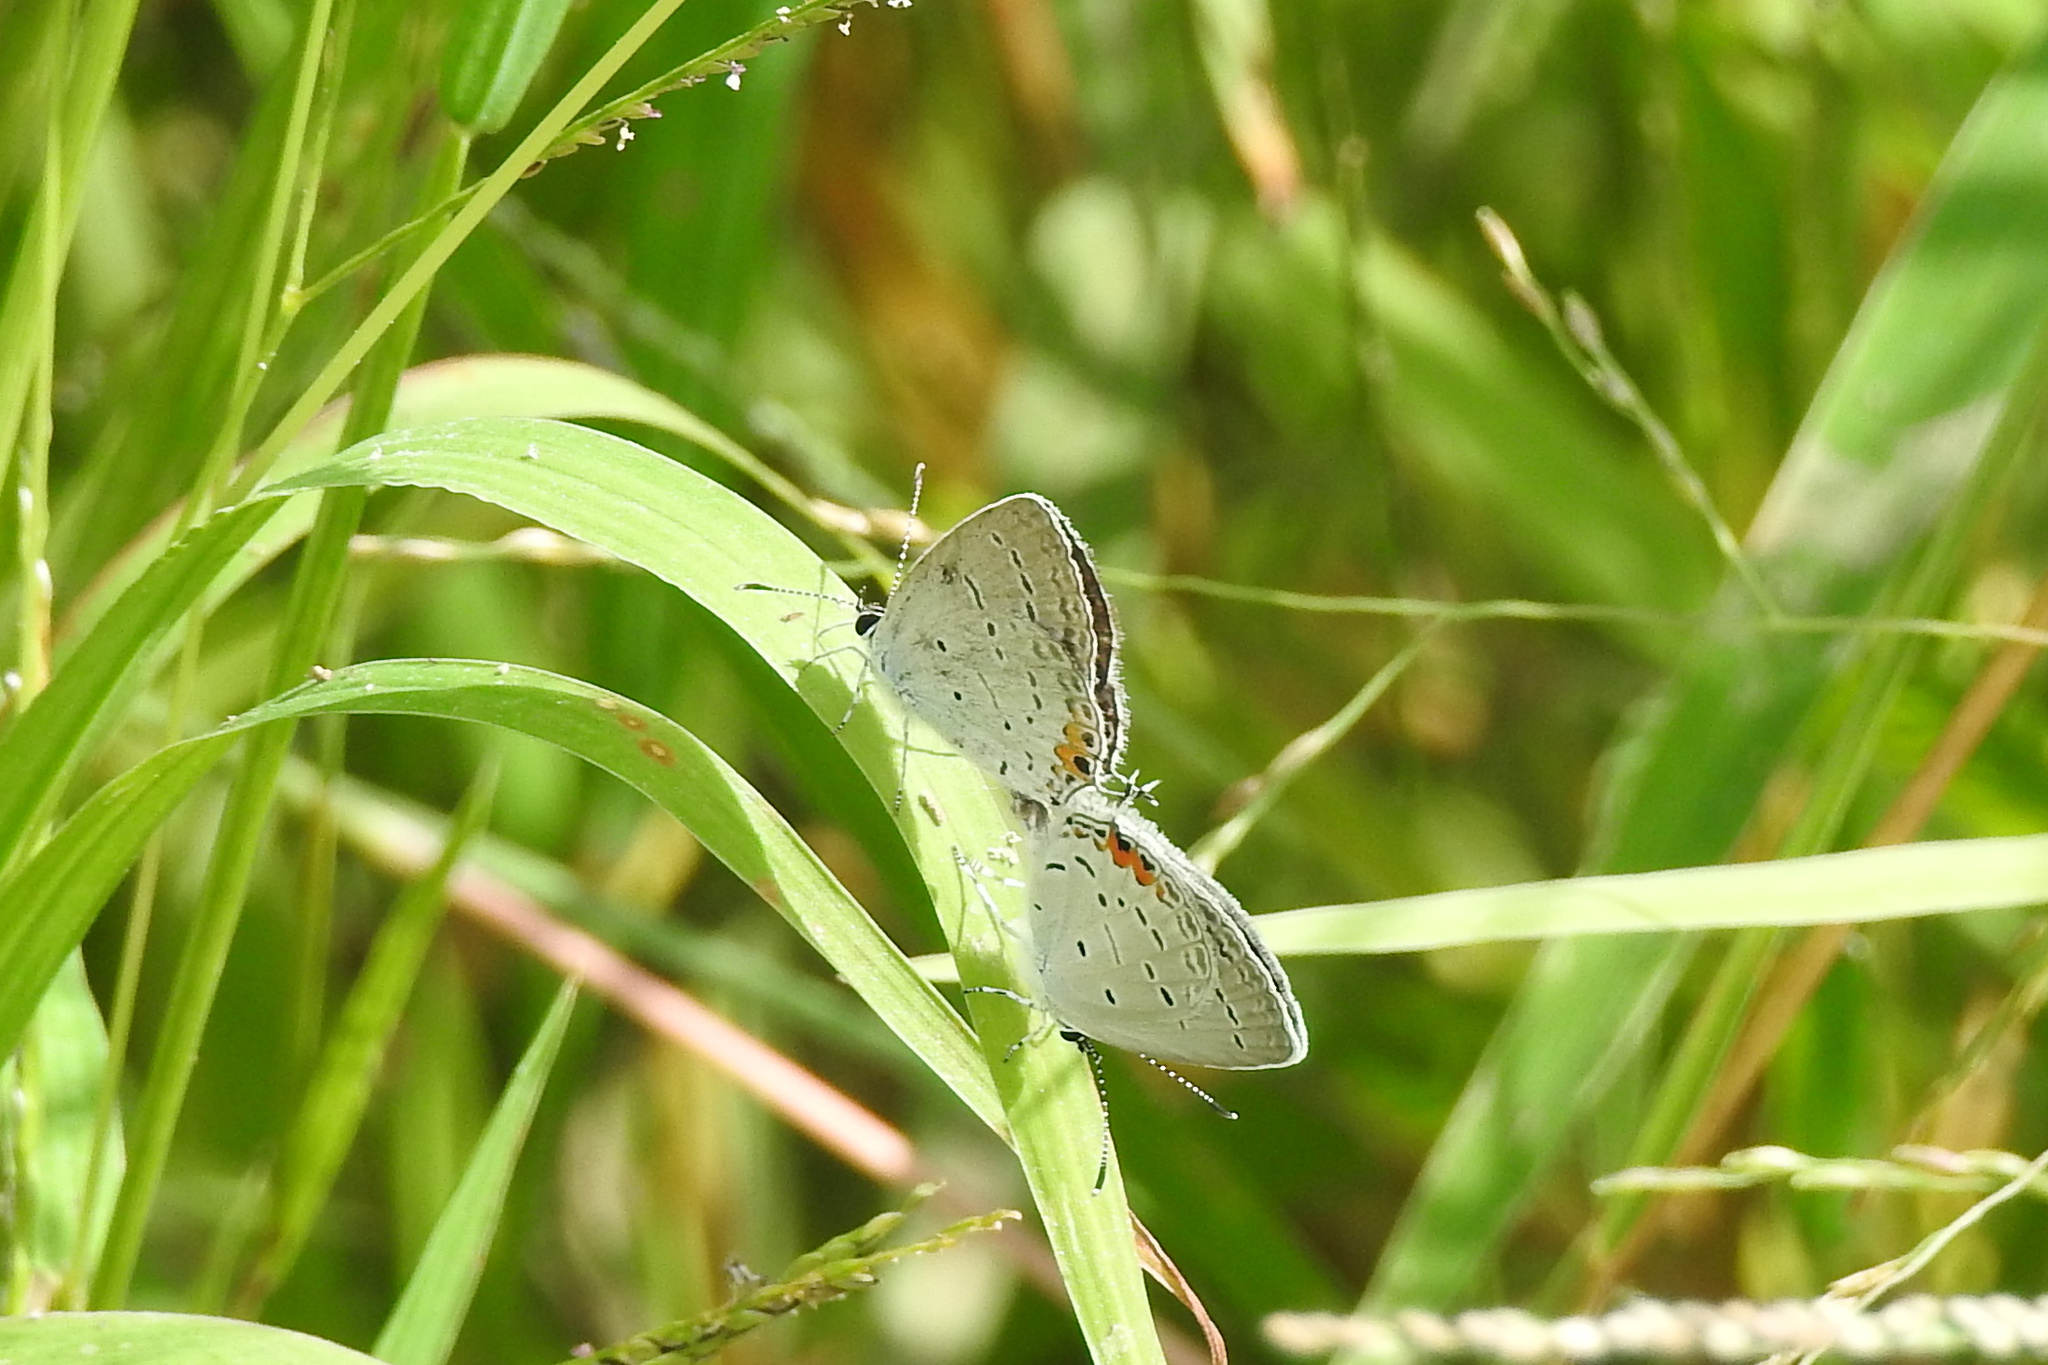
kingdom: Animalia
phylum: Arthropoda
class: Insecta
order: Lepidoptera
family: Lycaenidae
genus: Elkalyce
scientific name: Elkalyce comyntas
